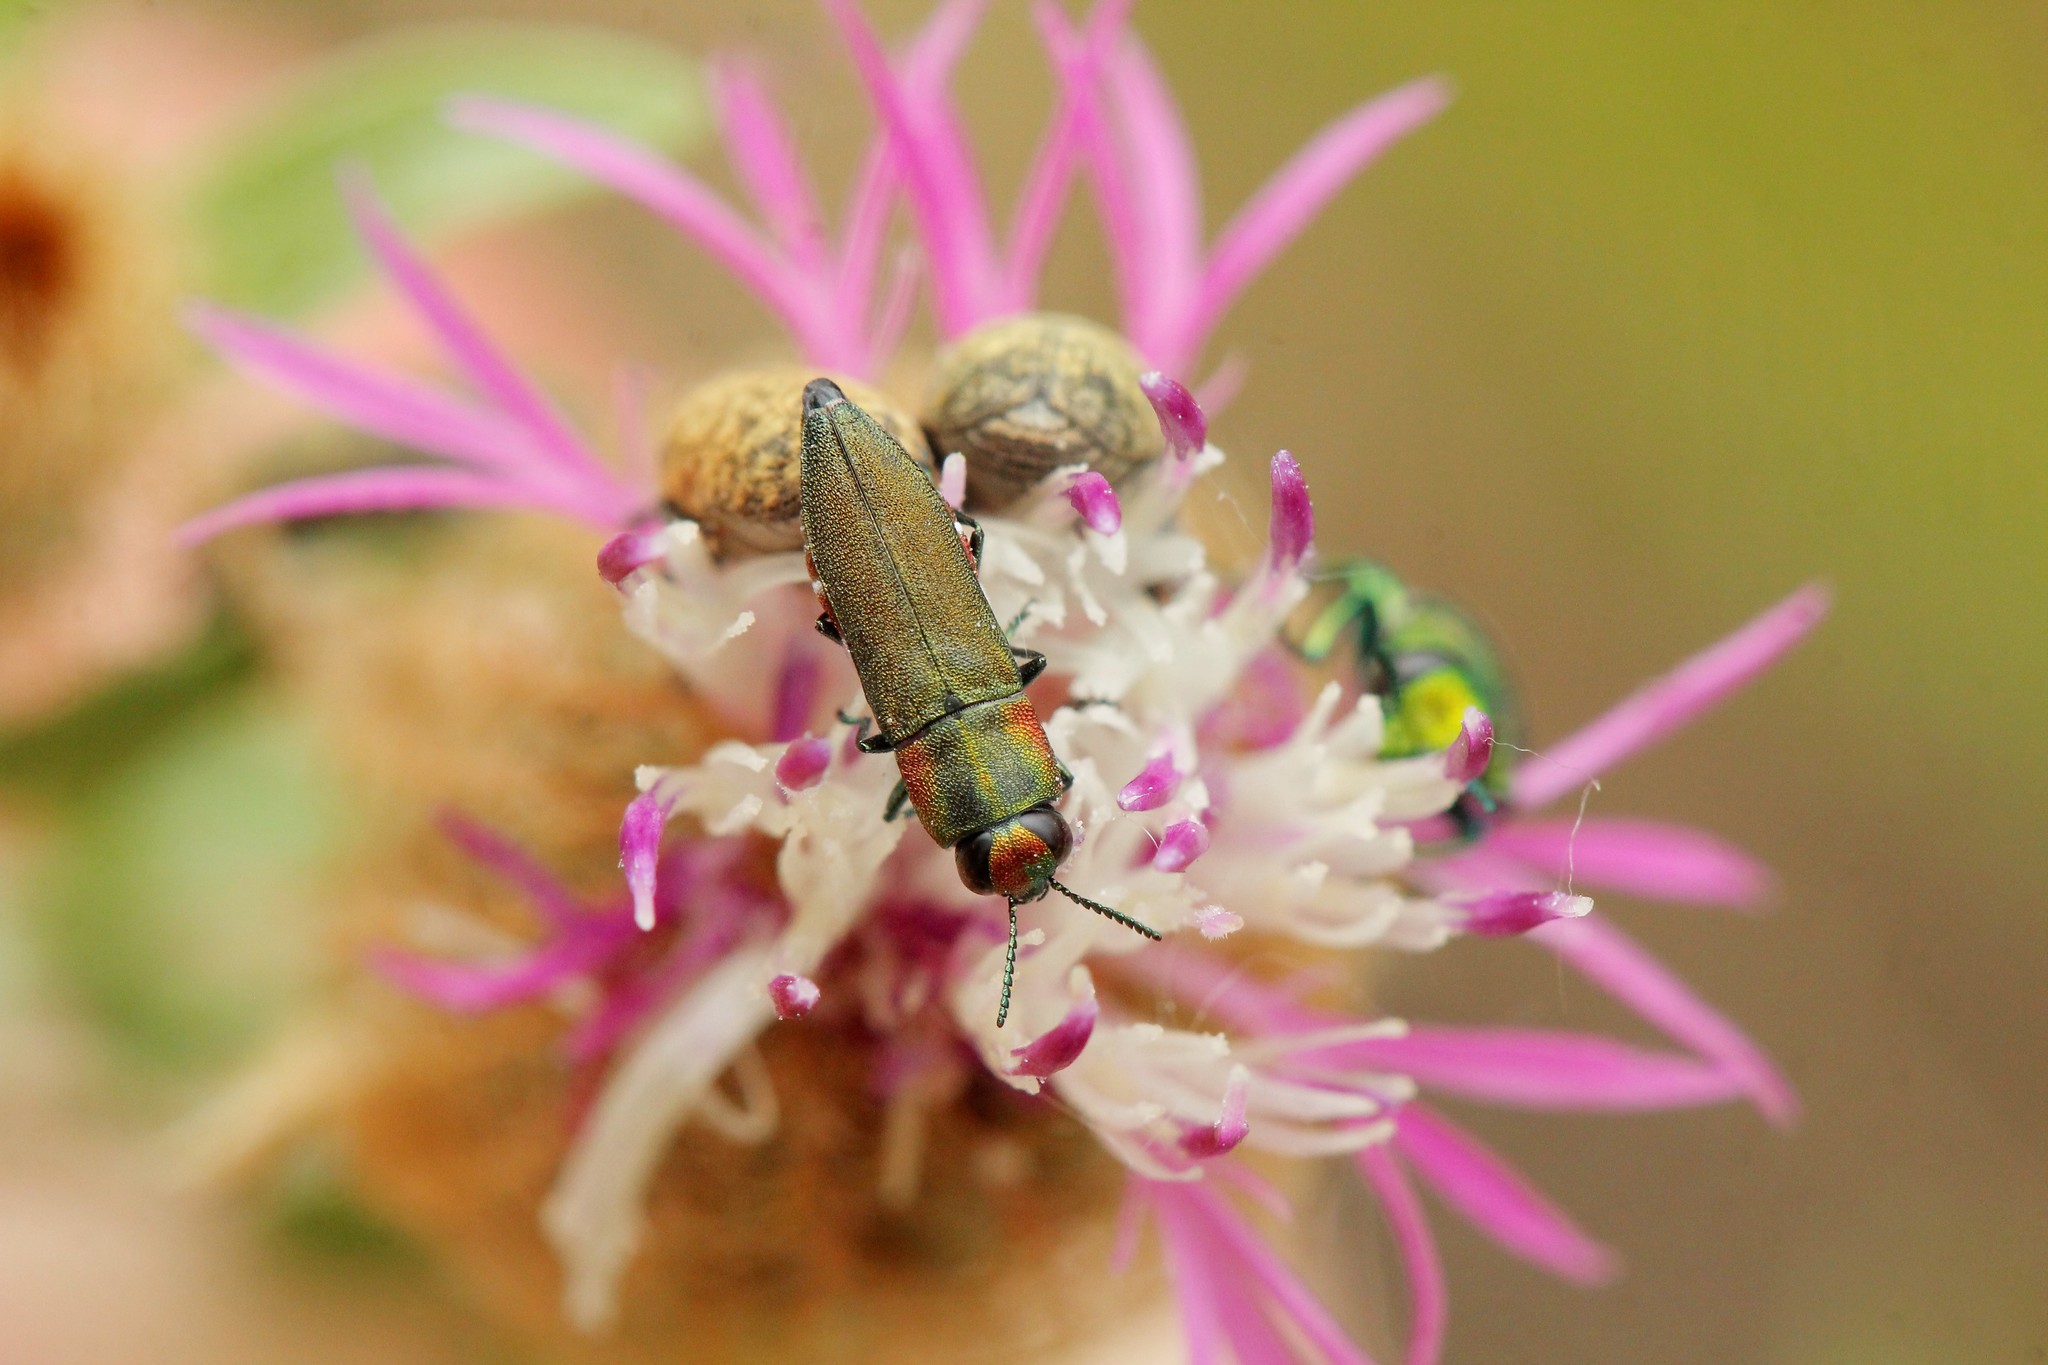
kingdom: Animalia
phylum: Arthropoda
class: Insecta
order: Coleoptera
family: Buprestidae
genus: Anthaxia
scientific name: Anthaxia diadema
